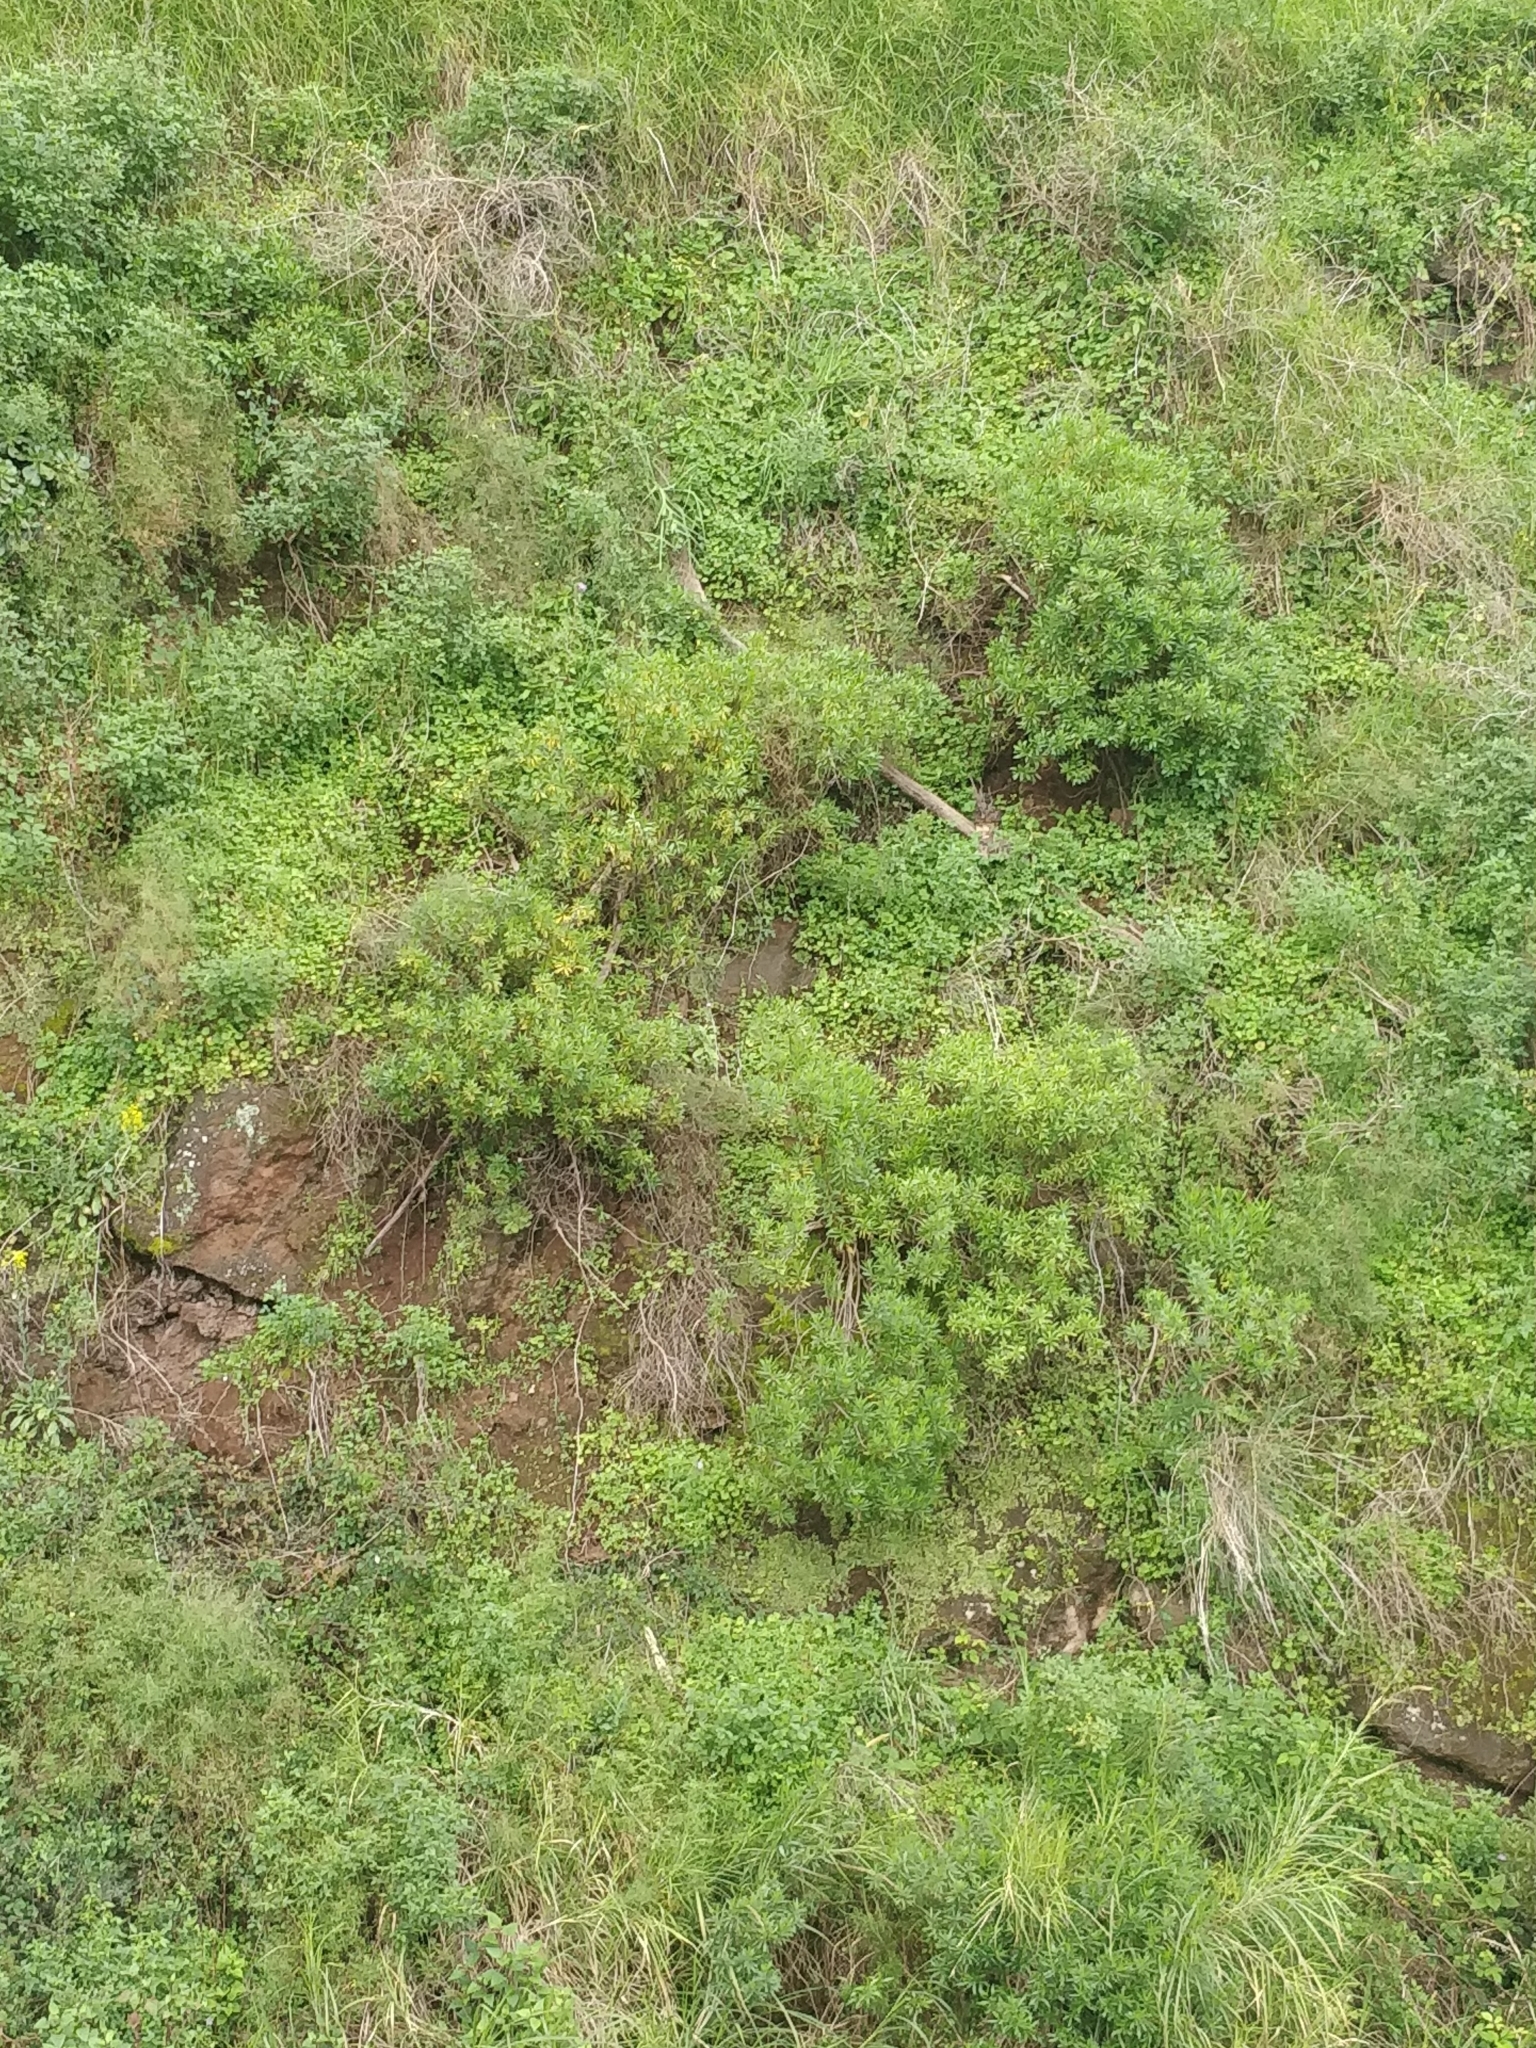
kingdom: Plantae
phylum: Tracheophyta
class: Magnoliopsida
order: Lamiales
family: Plantaginaceae
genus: Globularia
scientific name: Globularia salicina
